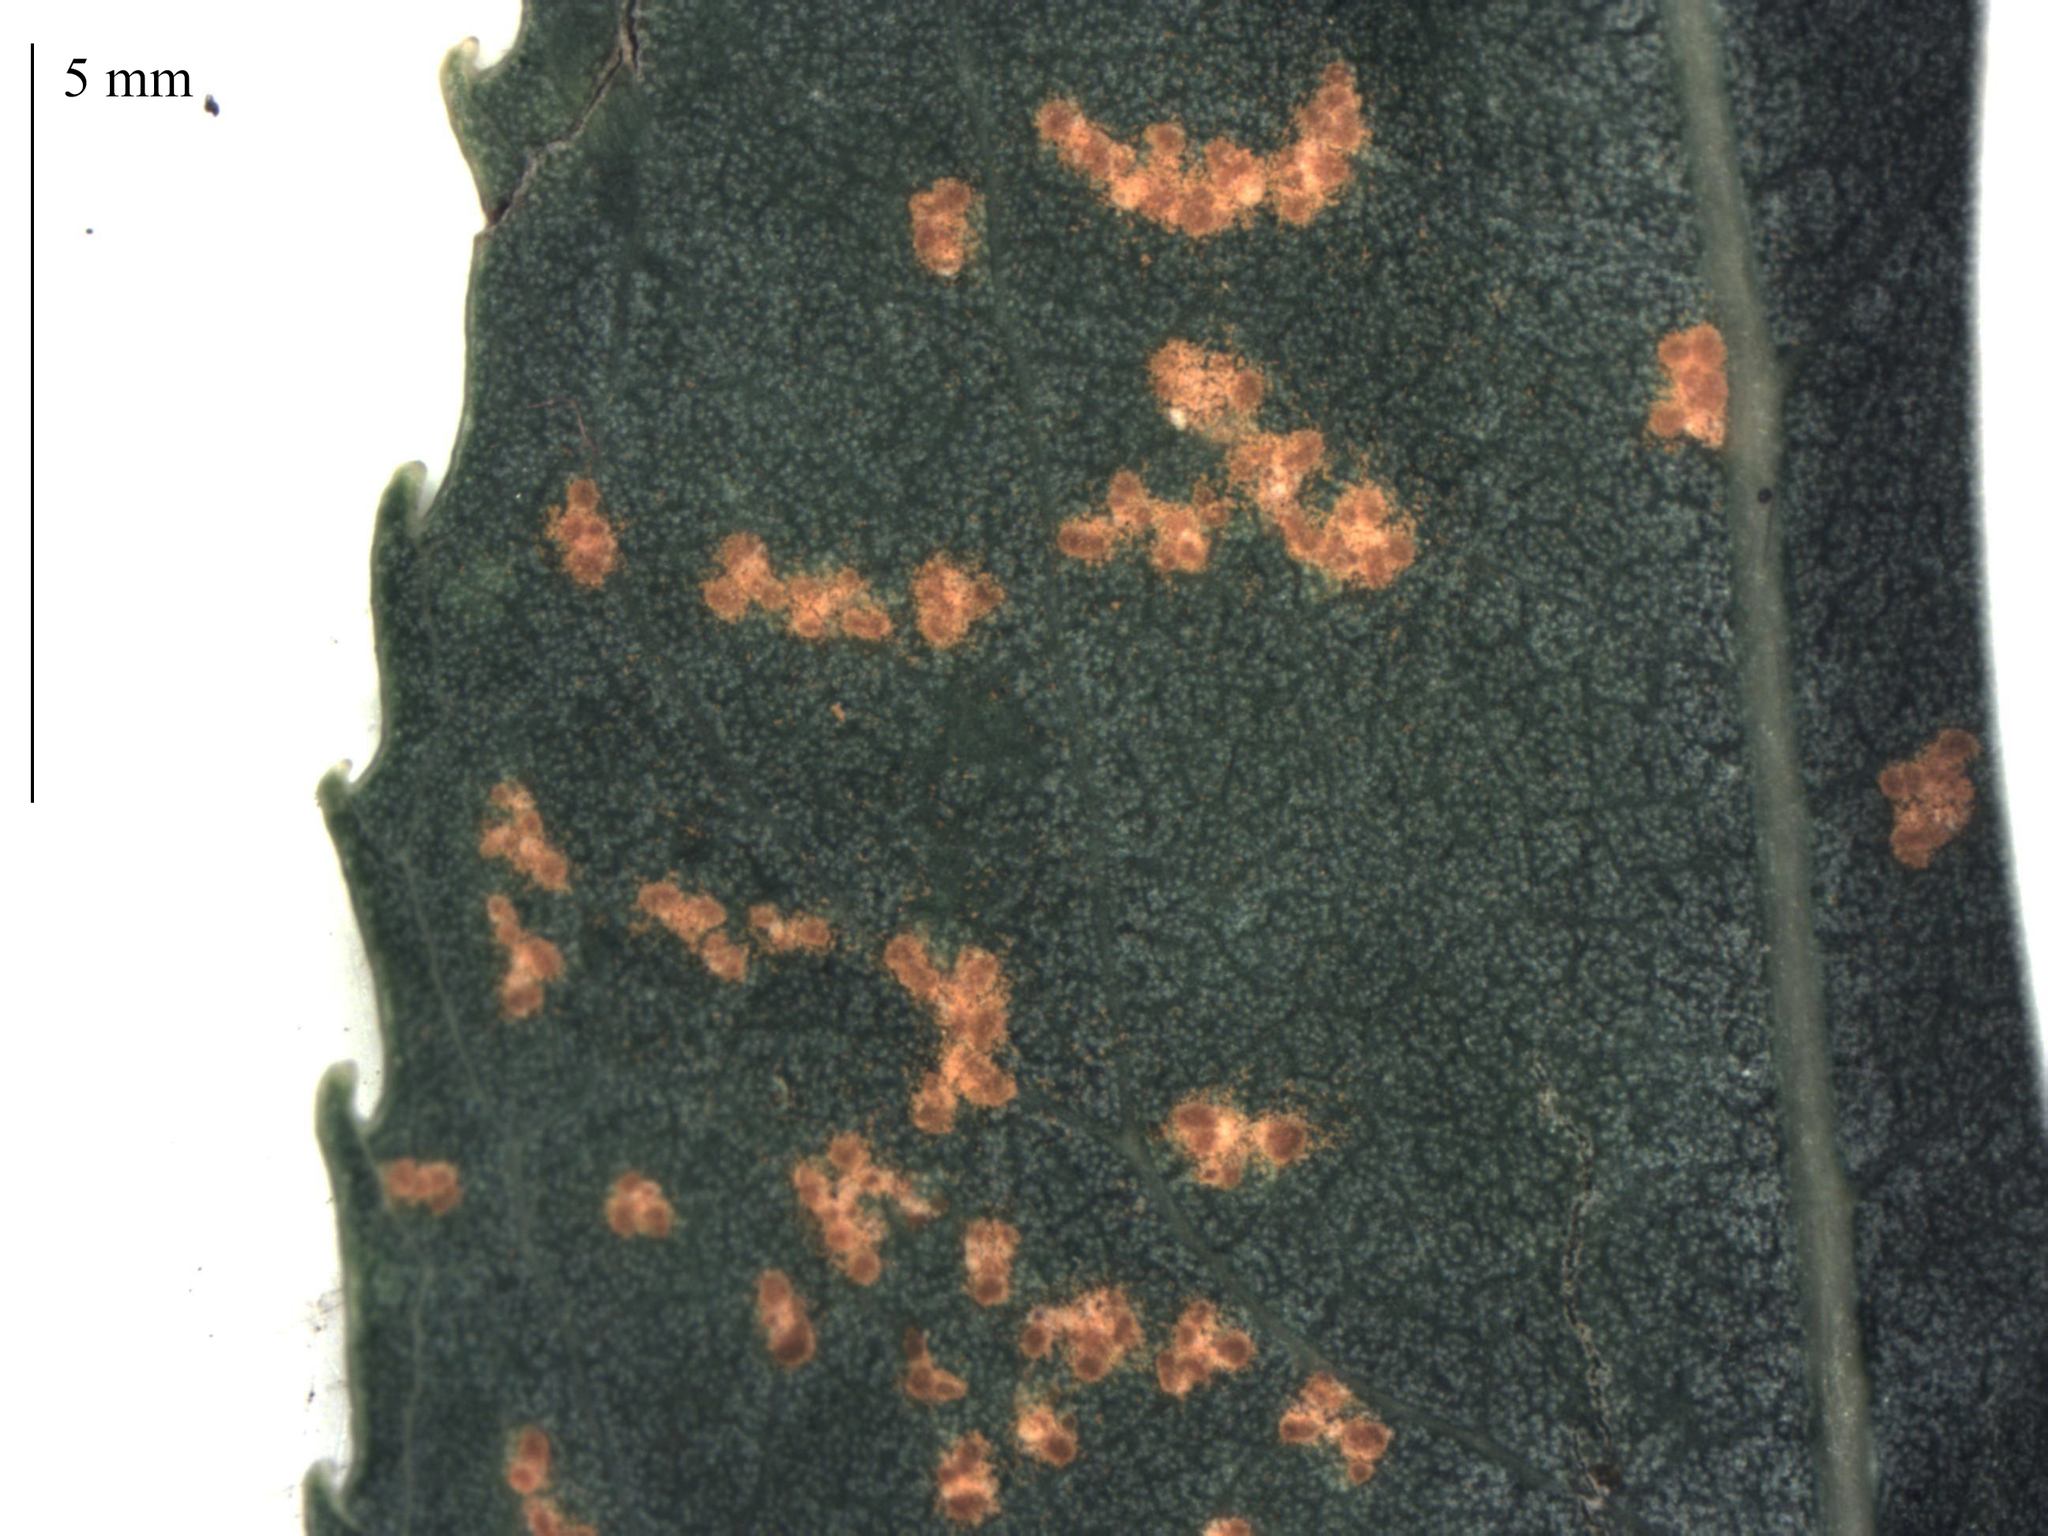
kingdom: Fungi
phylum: Basidiomycota
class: Pucciniomycetes
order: Pucciniales
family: Melampsoraceae
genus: Melampsora
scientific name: Melampsora coleosporioides
